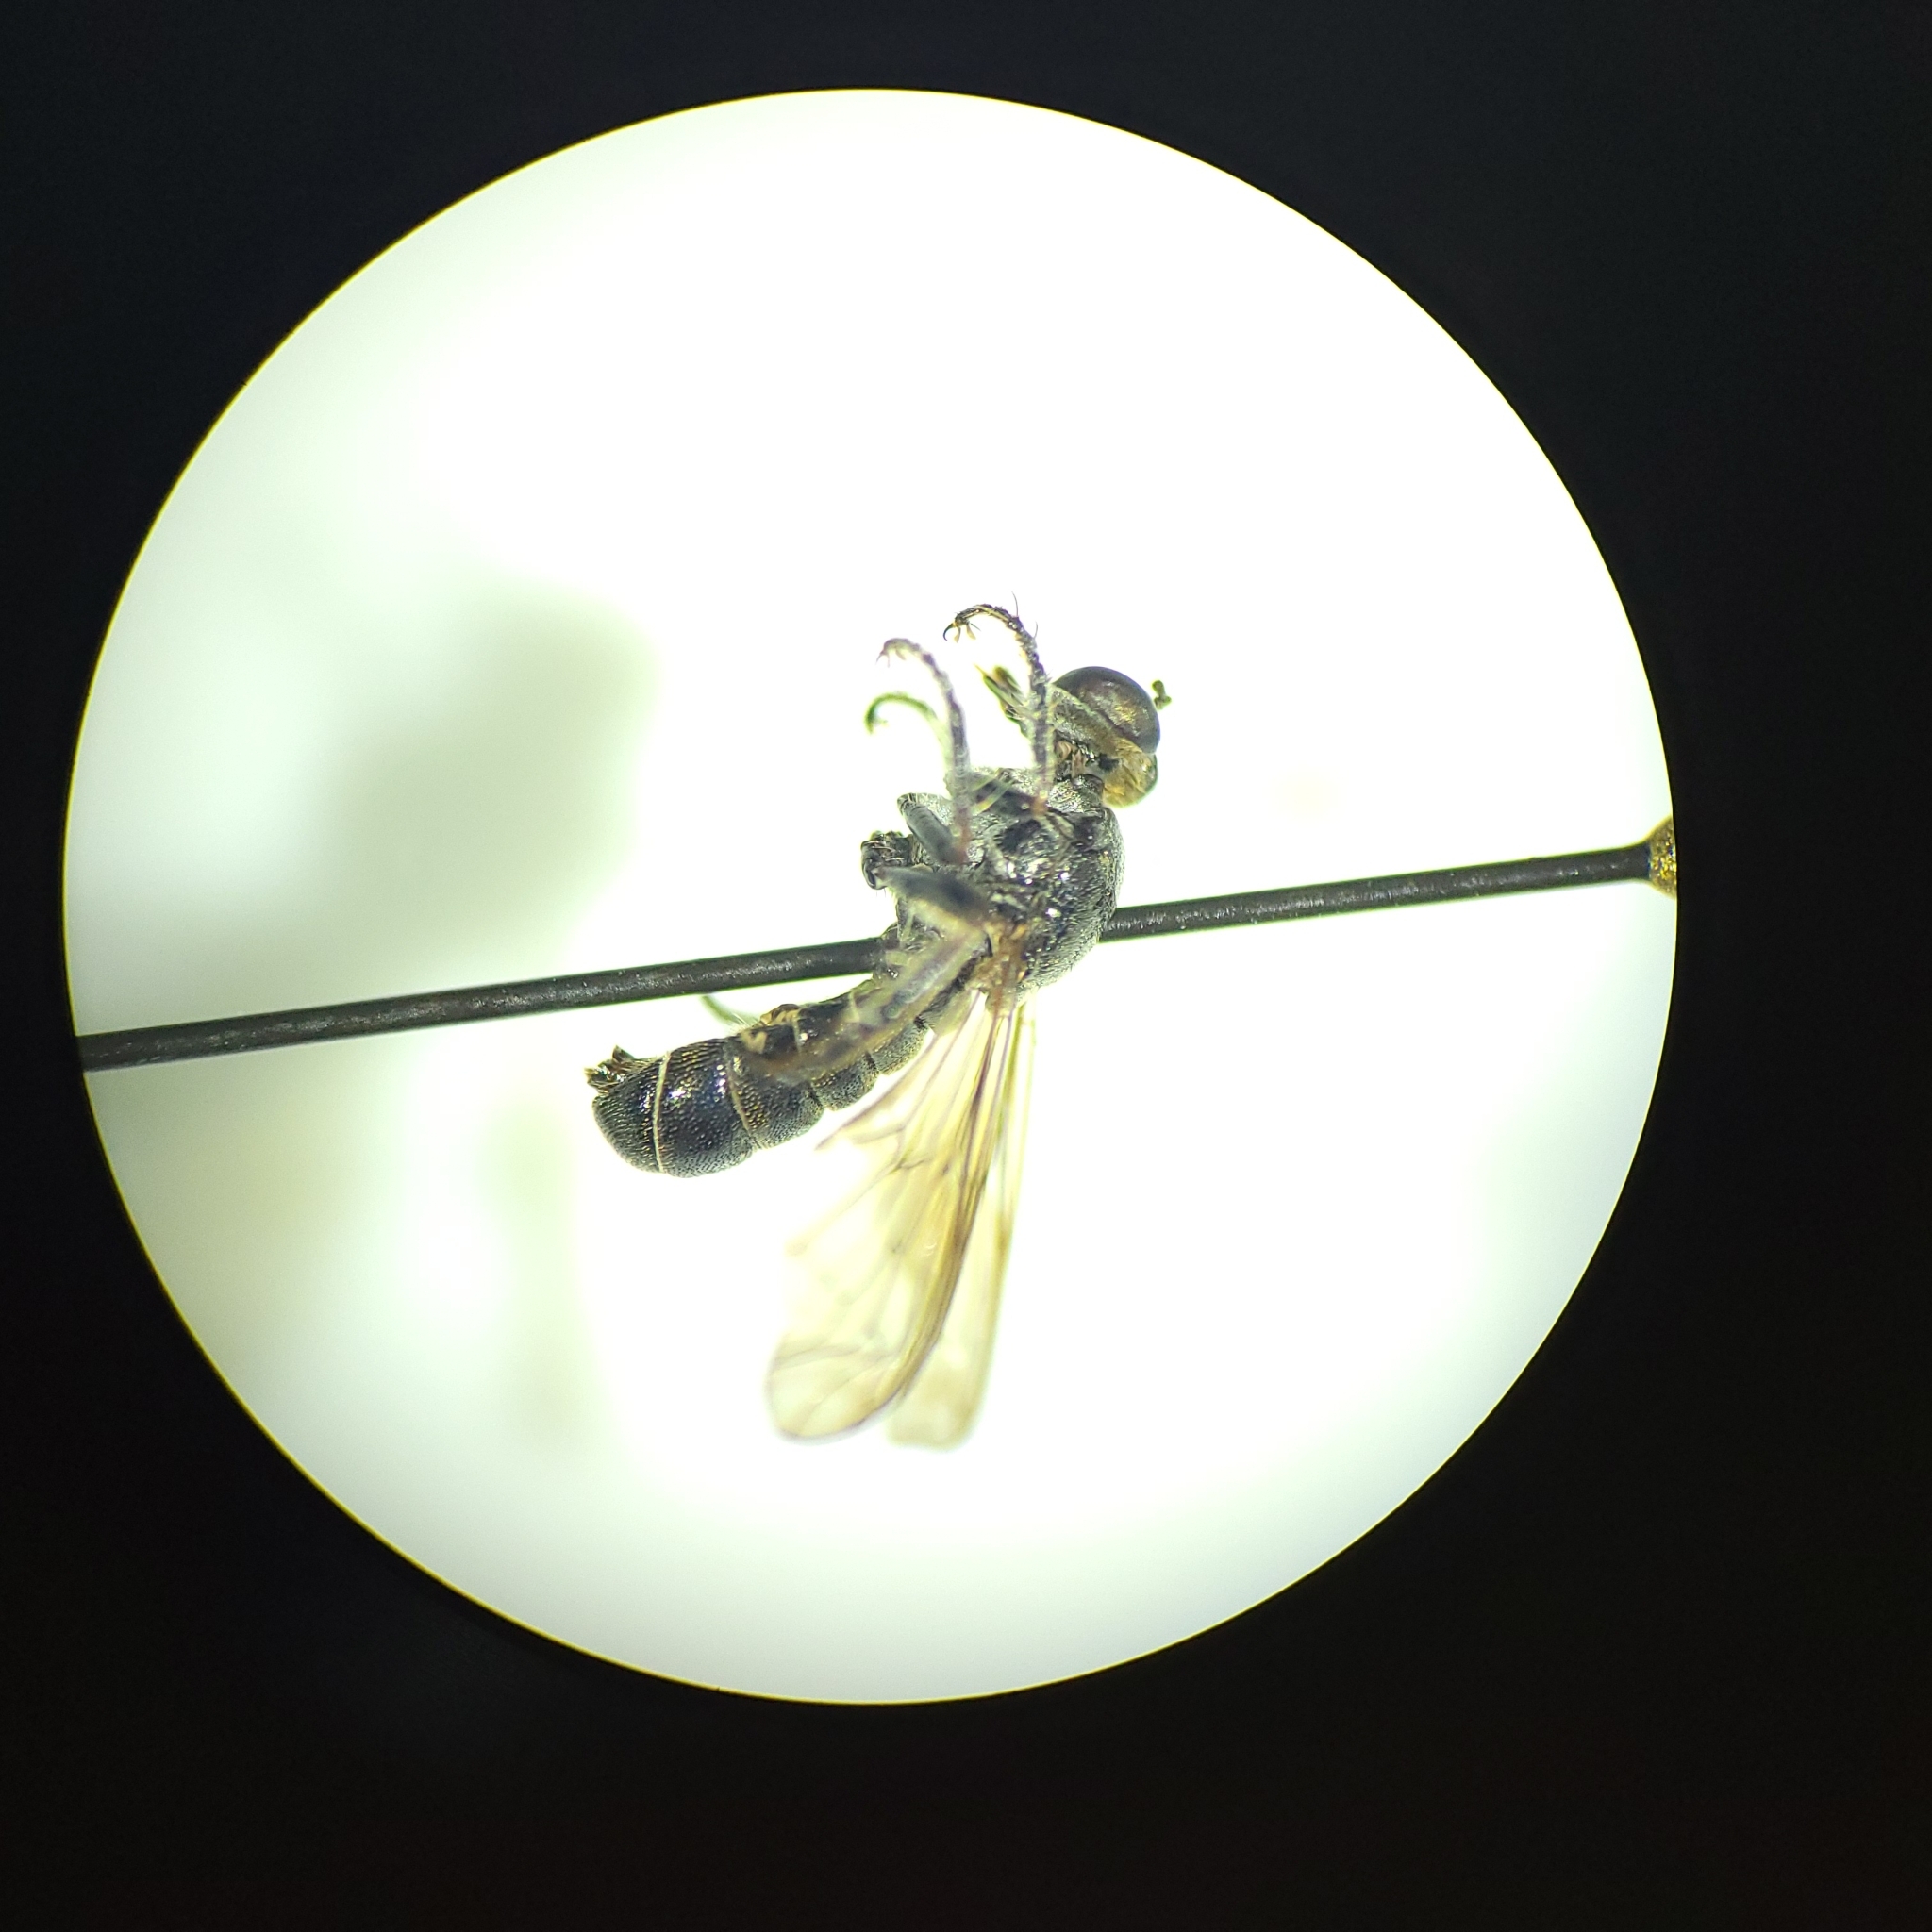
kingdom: Animalia
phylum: Arthropoda
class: Insecta
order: Diptera
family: Asilidae
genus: Atomosia
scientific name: Atomosia puella
